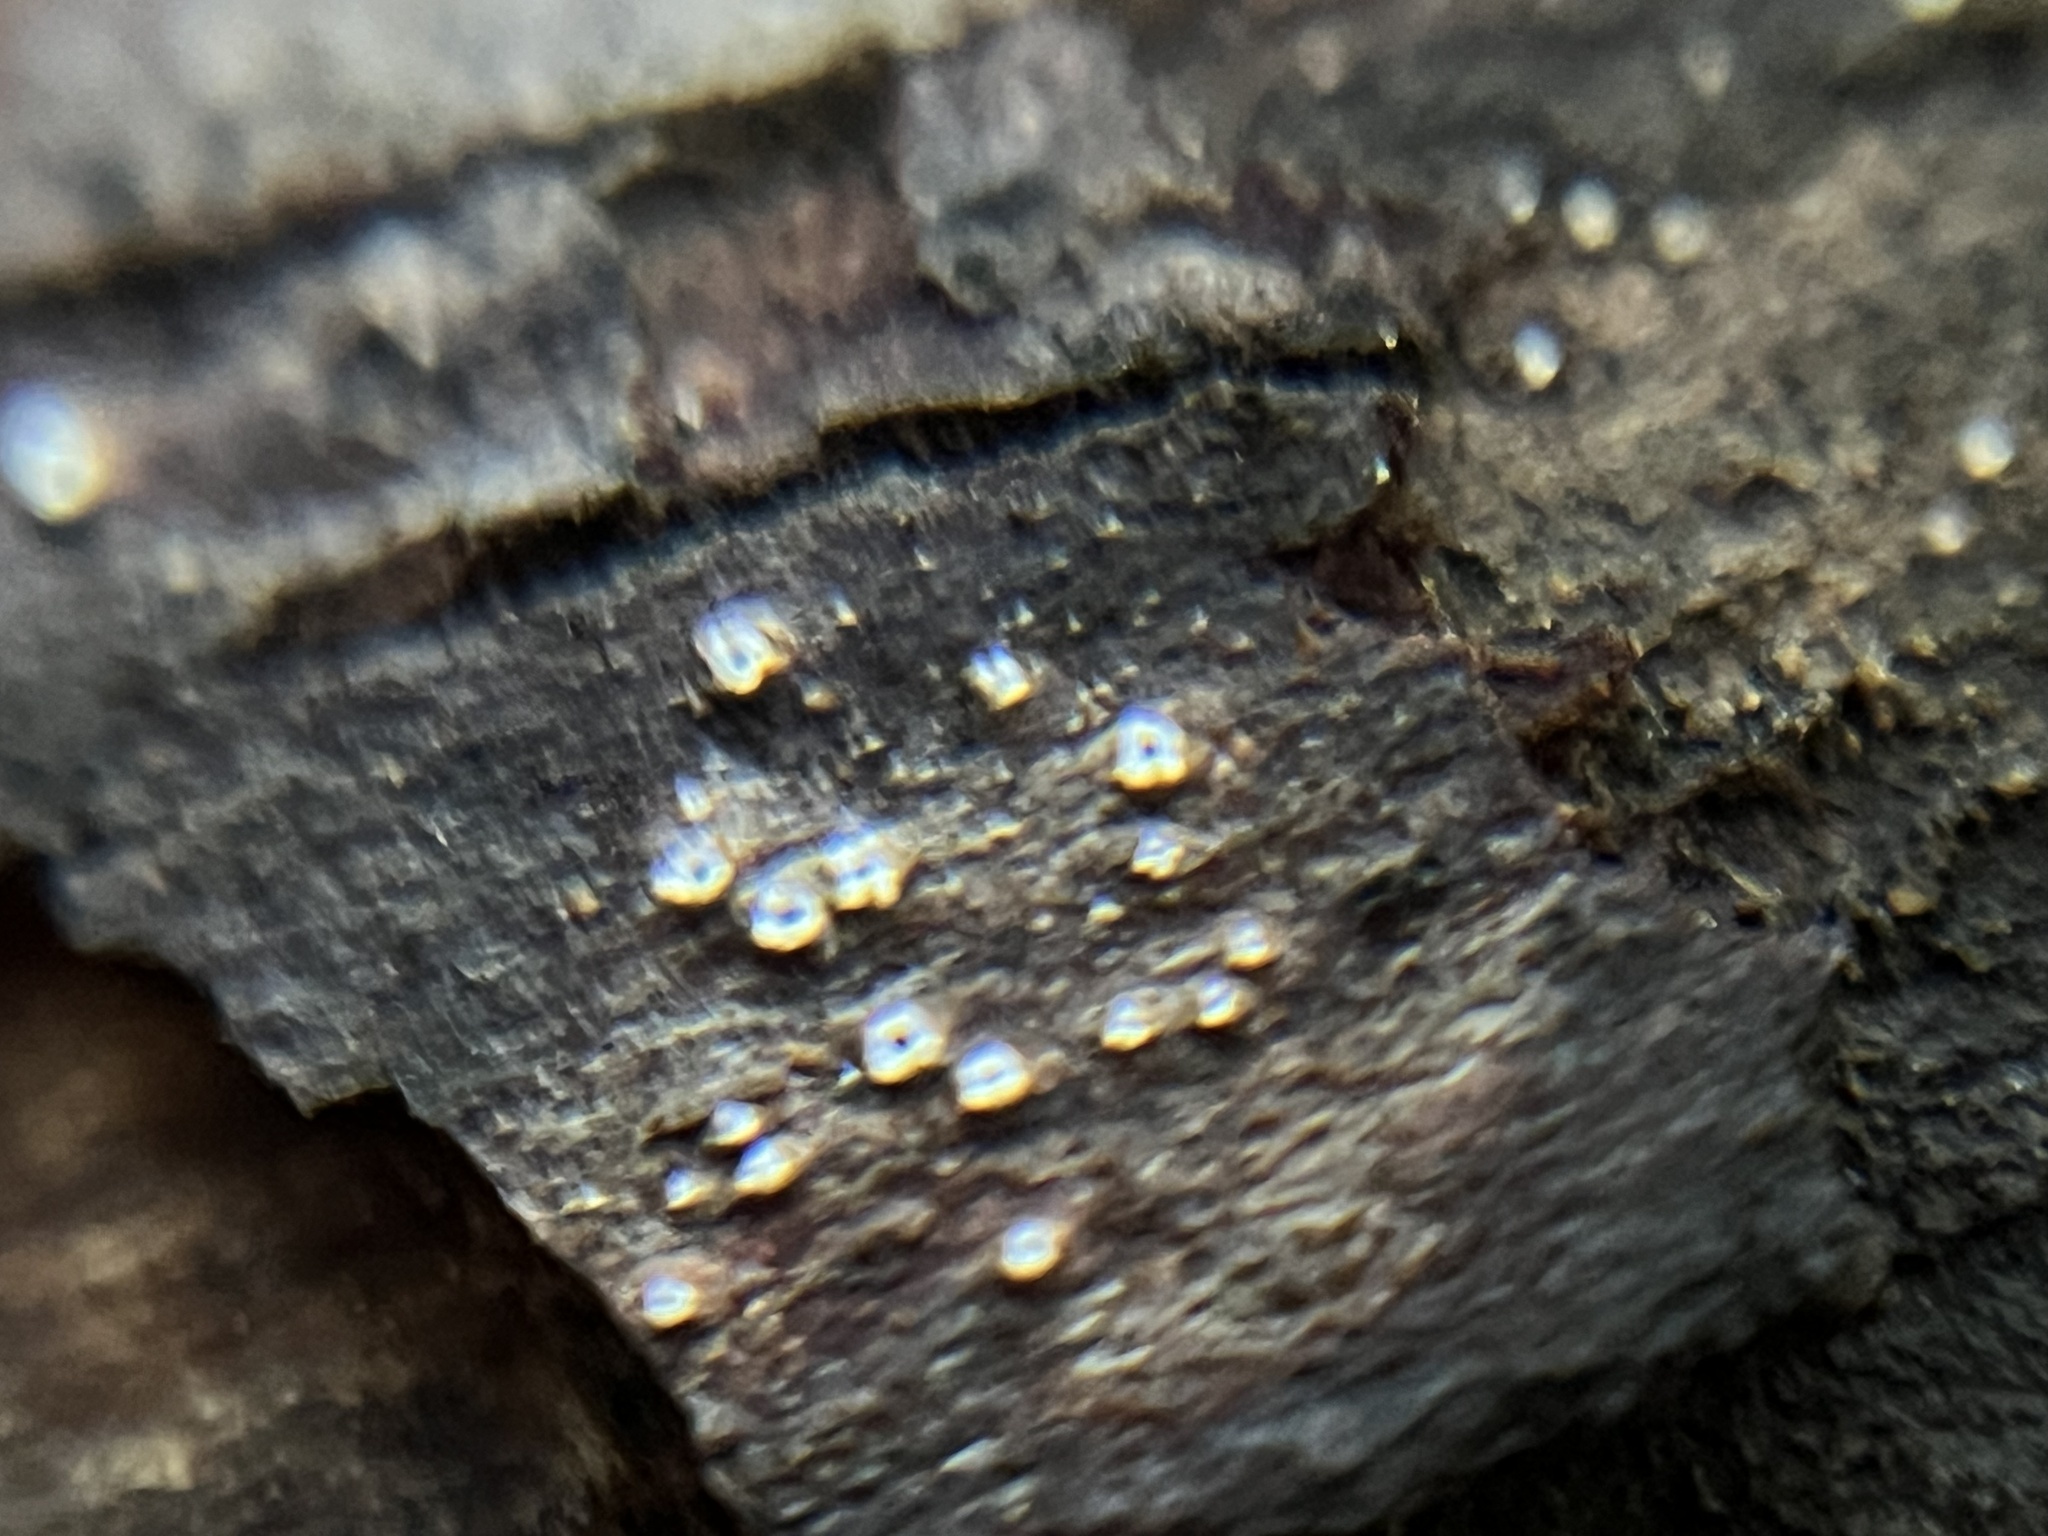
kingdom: Fungi
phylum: Ascomycota
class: Lecanoromycetes
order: Ostropales
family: Stictidaceae
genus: Stictis
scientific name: Stictis radiata
